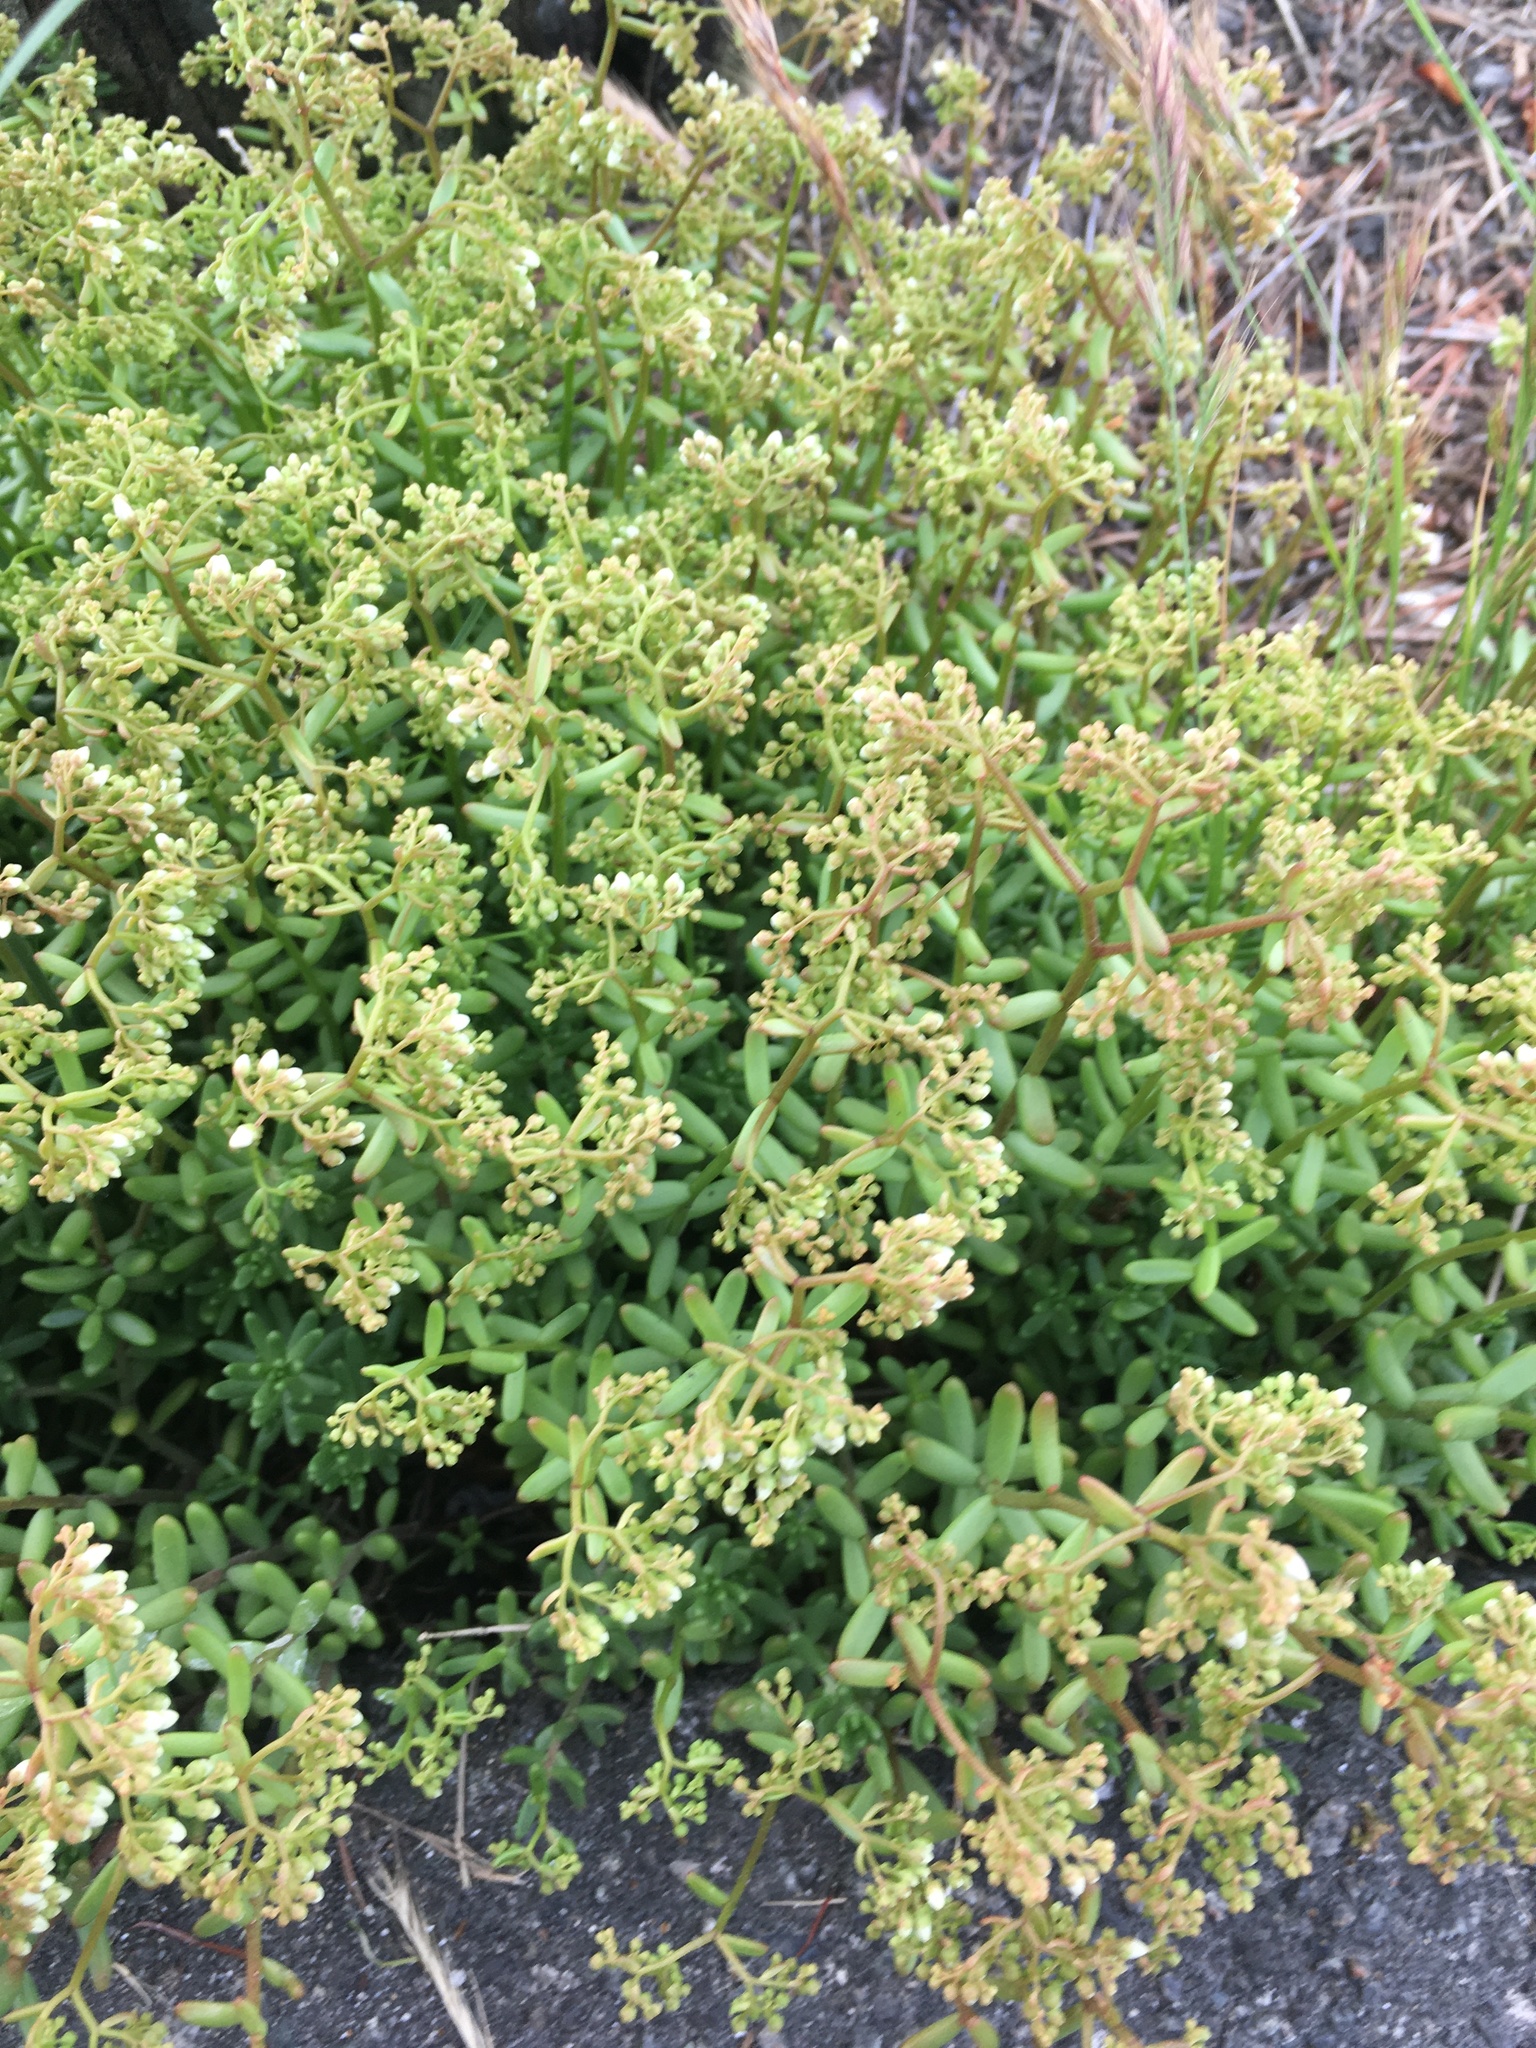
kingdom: Plantae
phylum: Tracheophyta
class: Magnoliopsida
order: Saxifragales
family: Crassulaceae
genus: Sedum
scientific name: Sedum album
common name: White stonecrop
